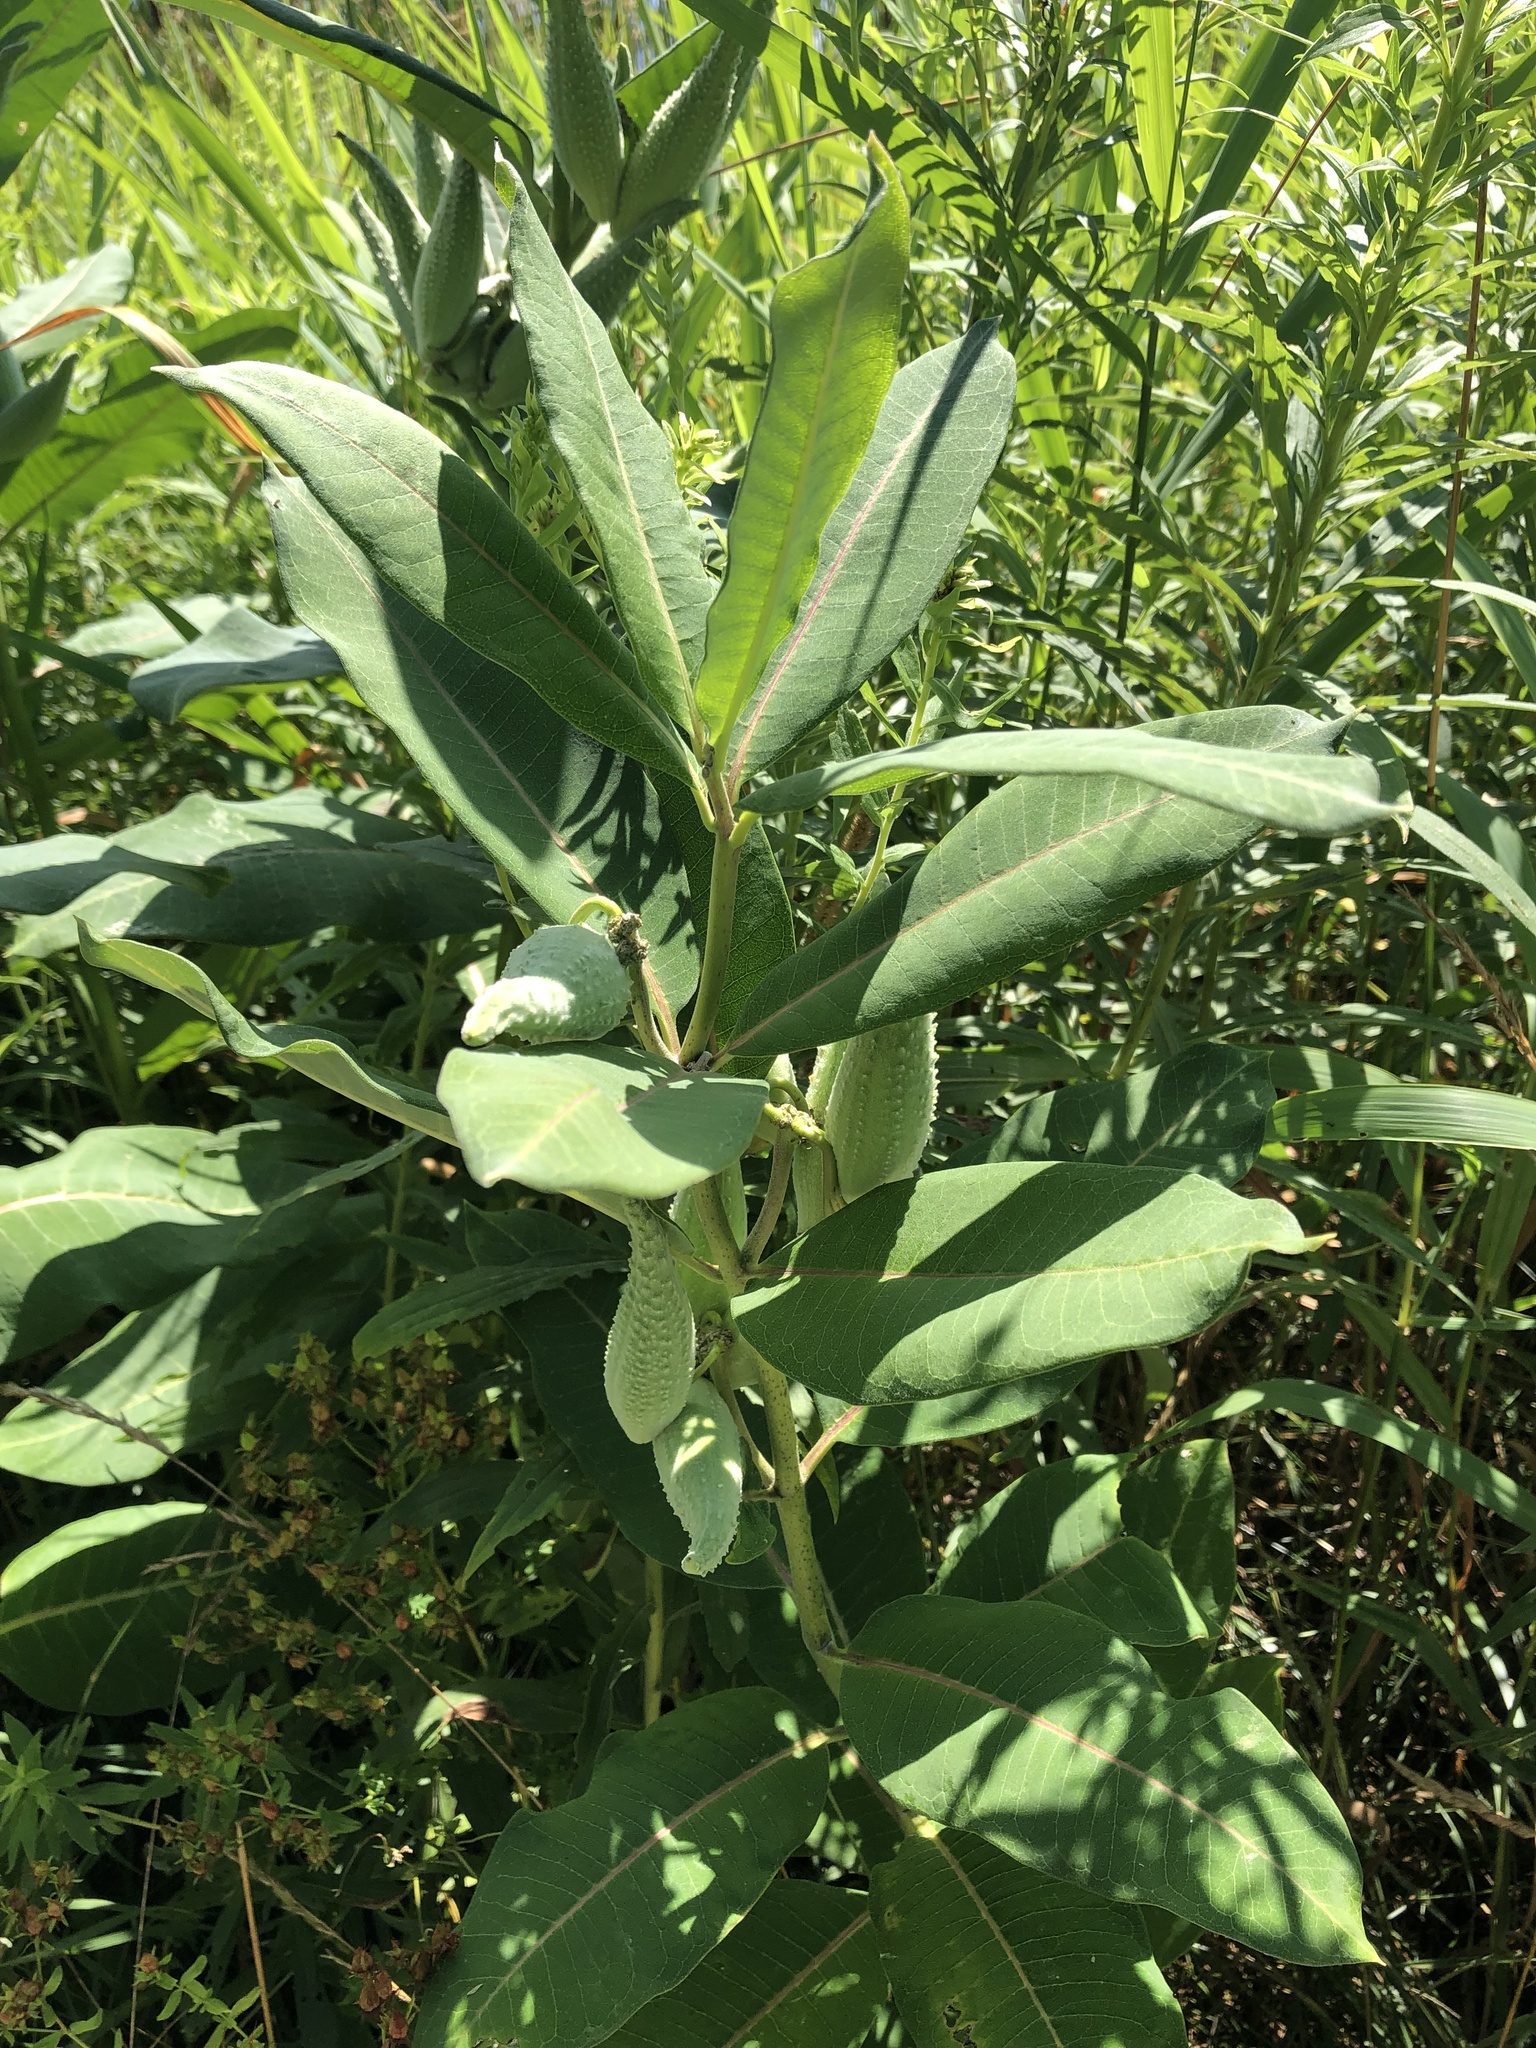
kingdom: Plantae
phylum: Tracheophyta
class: Magnoliopsida
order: Gentianales
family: Apocynaceae
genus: Asclepias
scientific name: Asclepias syriaca
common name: Common milkweed
